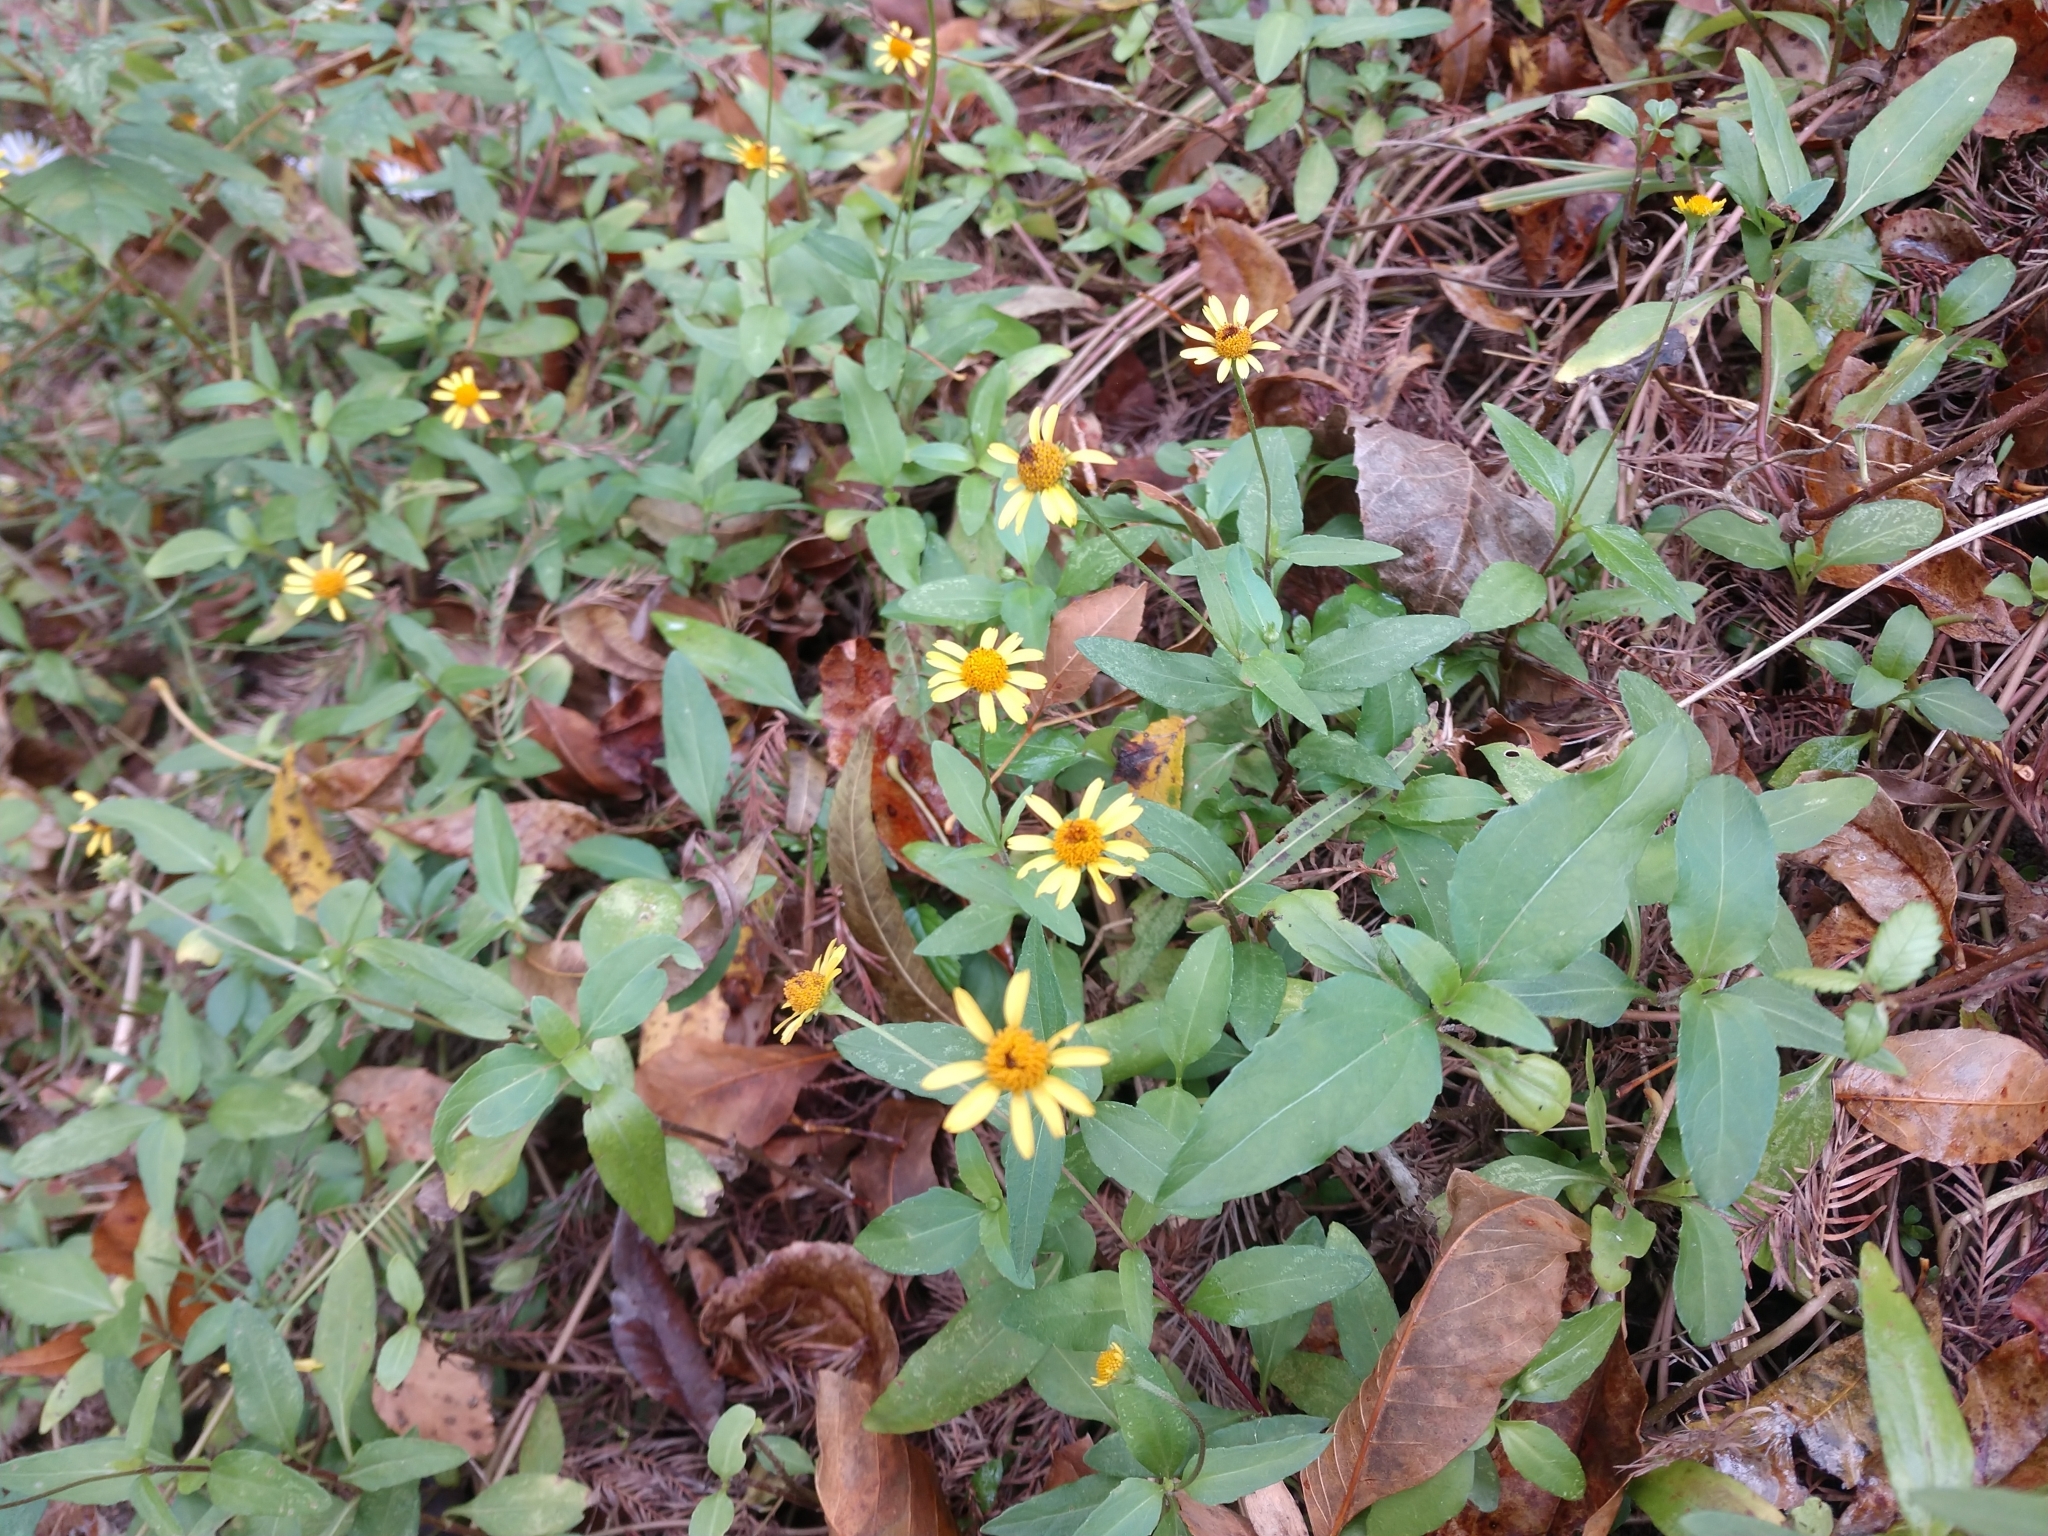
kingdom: Plantae
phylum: Tracheophyta
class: Magnoliopsida
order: Asterales
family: Asteraceae
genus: Acmella
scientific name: Acmella repens
